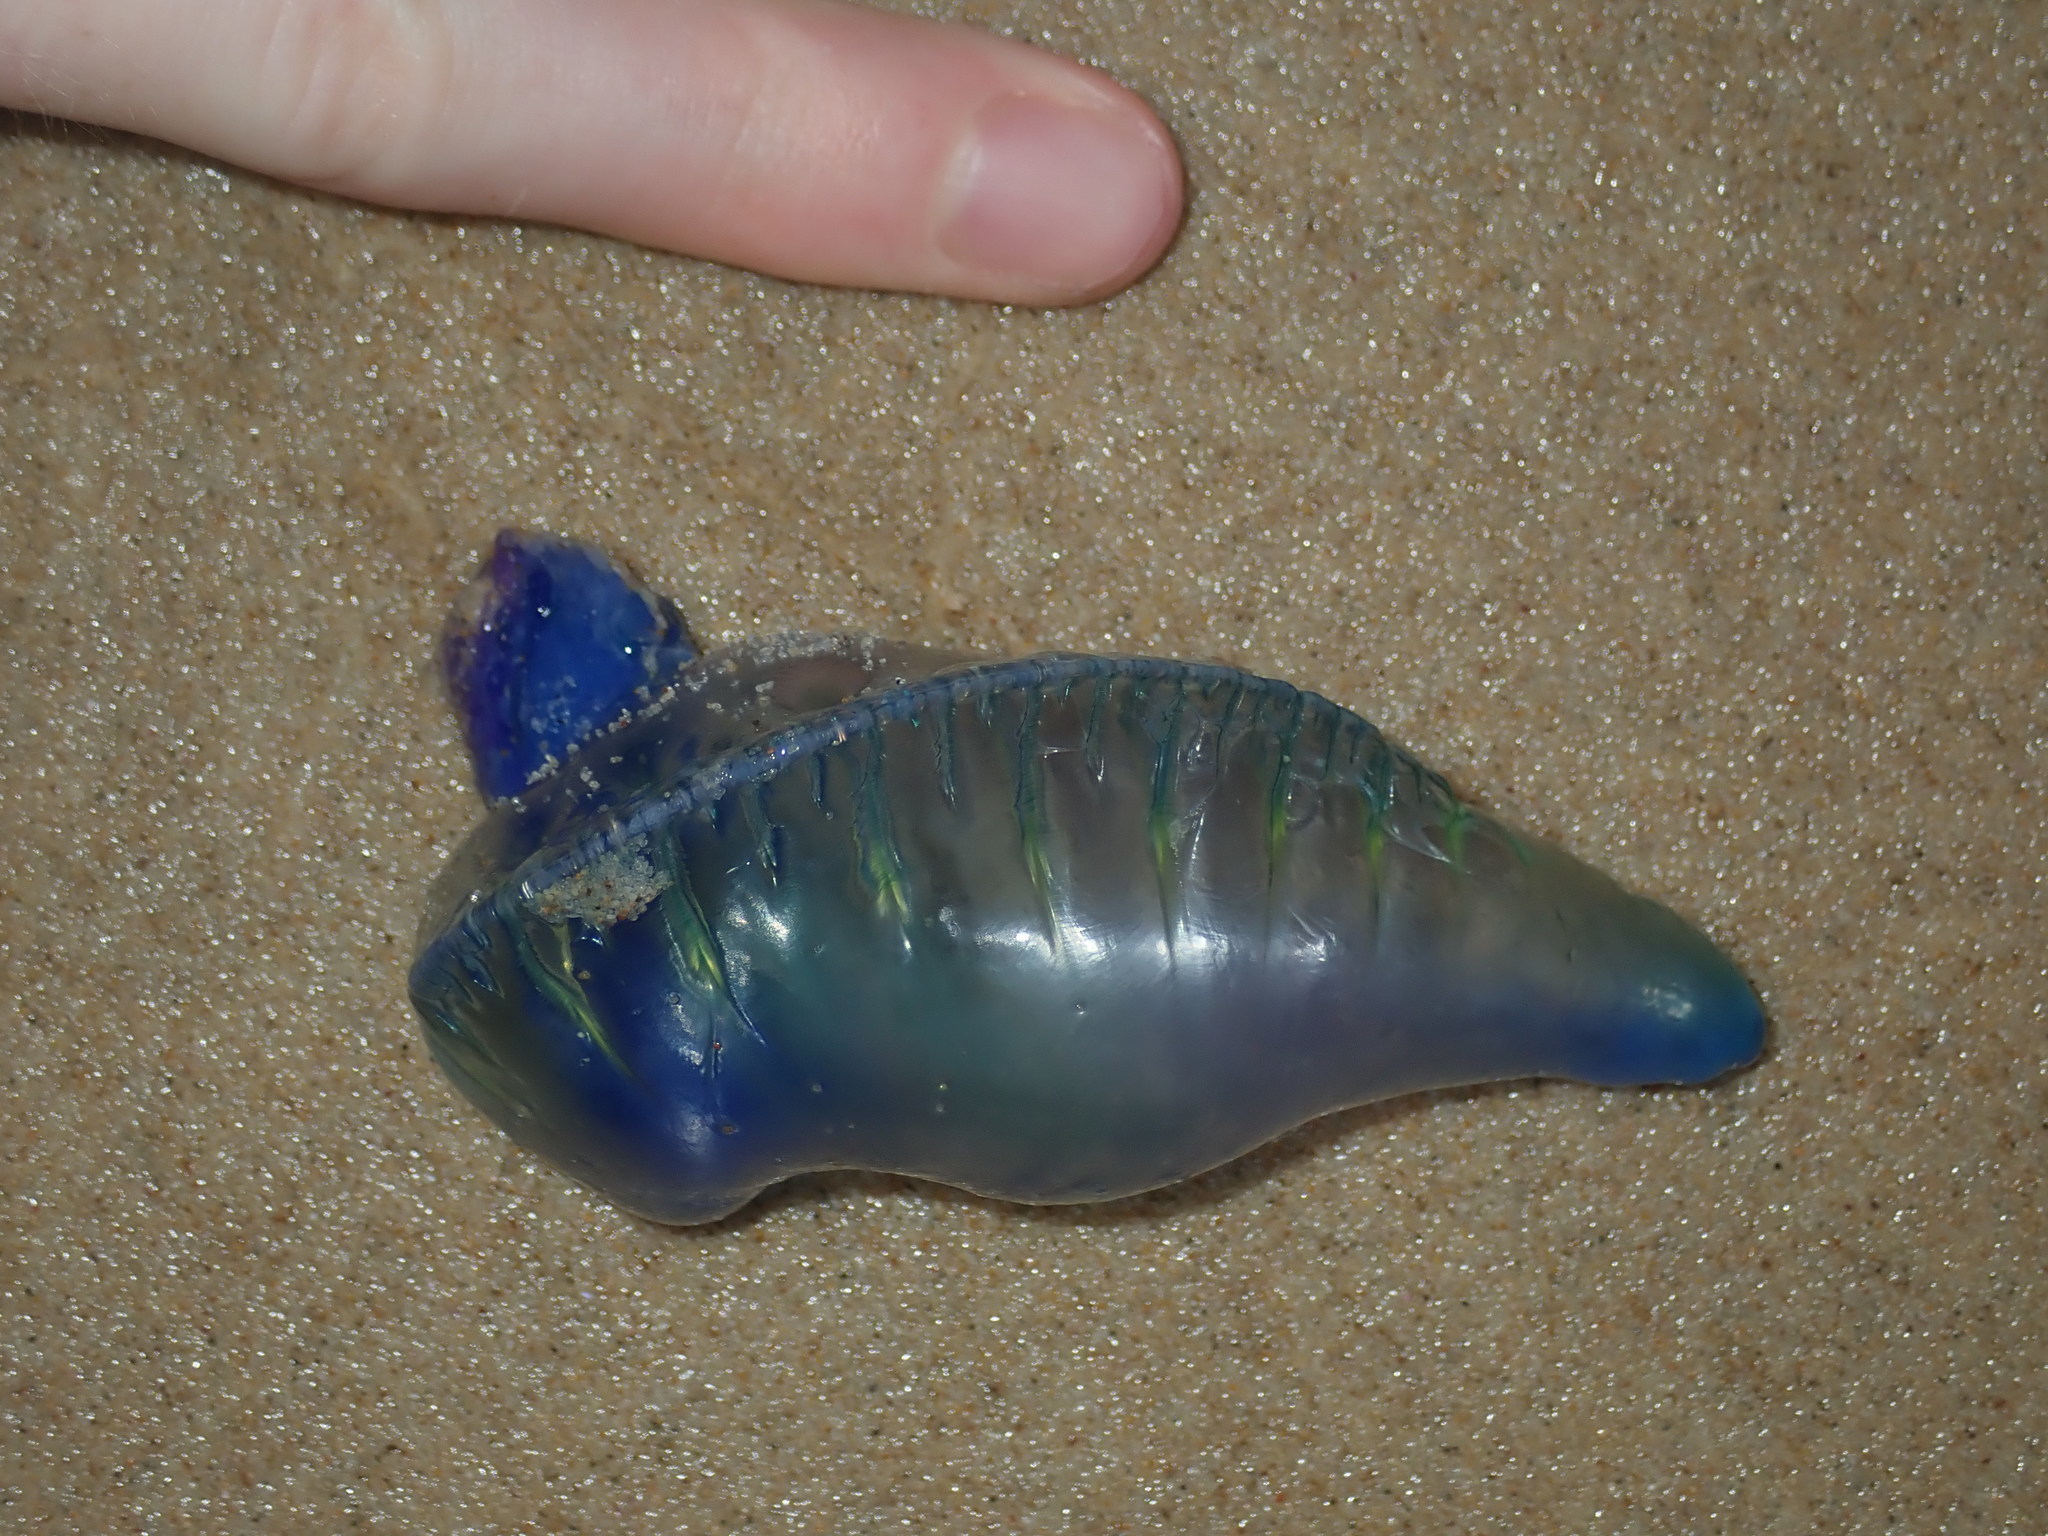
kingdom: Animalia
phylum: Cnidaria
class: Hydrozoa
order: Siphonophorae
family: Physaliidae
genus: Physalia
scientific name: Physalia physalis
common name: Portuguese man-of-war
